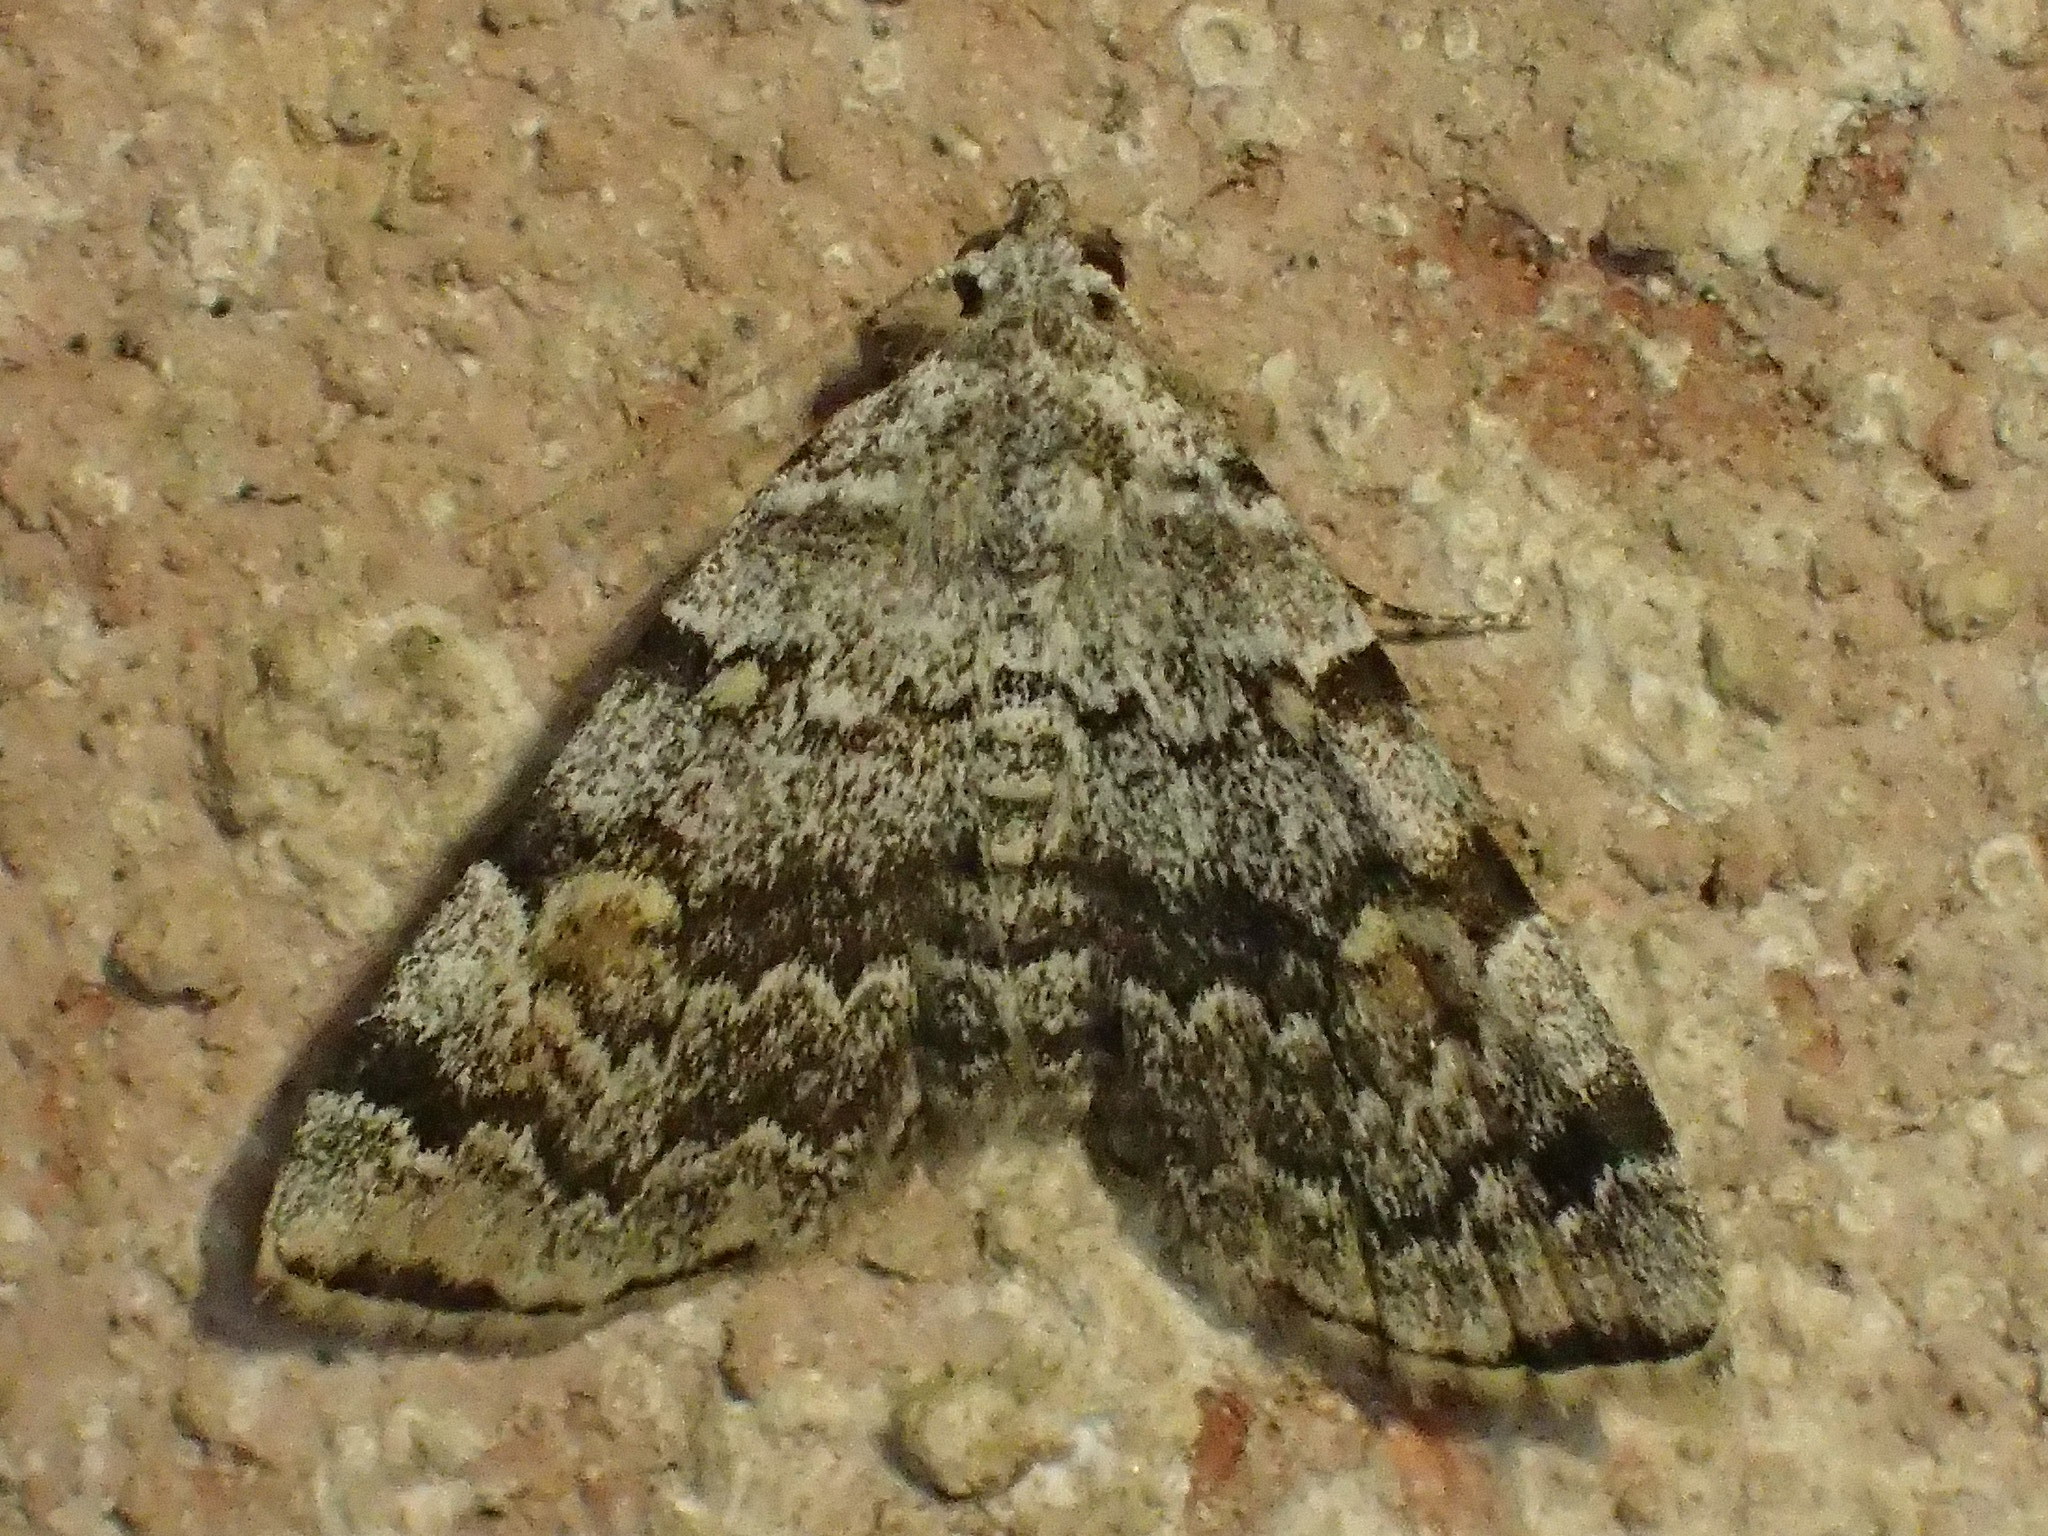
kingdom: Animalia
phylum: Arthropoda
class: Insecta
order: Lepidoptera
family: Erebidae
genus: Idia
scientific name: Idia americalis
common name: American idia moth
